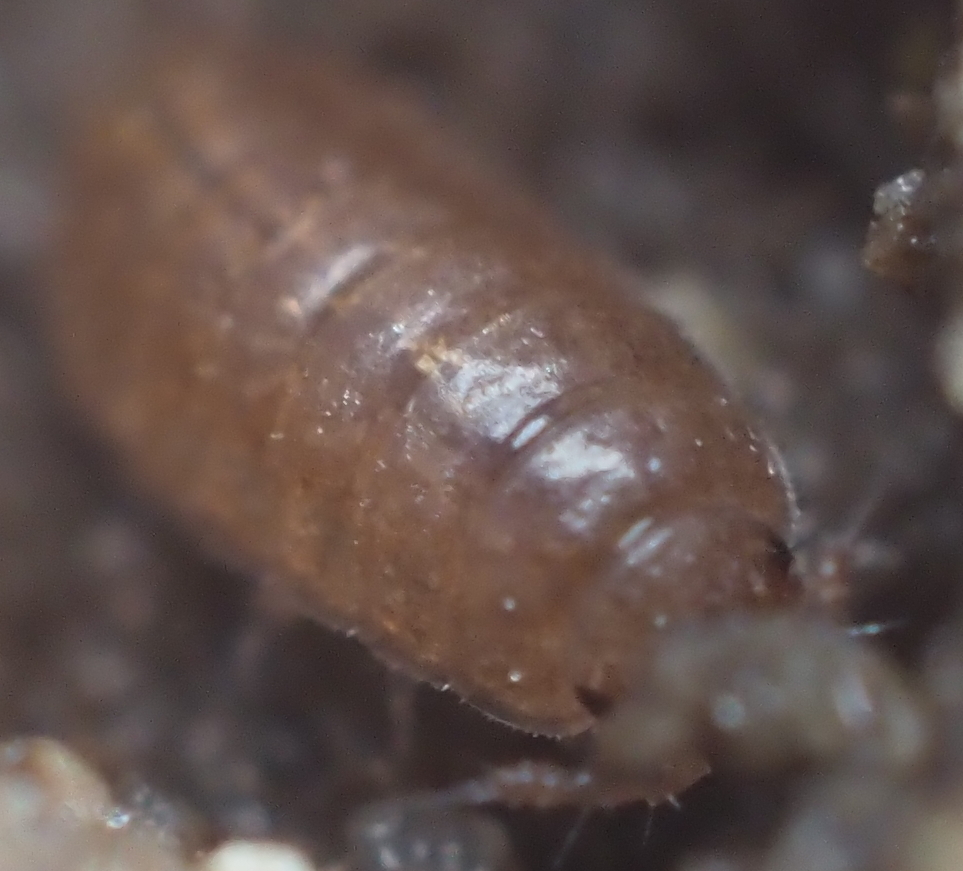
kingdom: Animalia
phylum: Arthropoda
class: Malacostraca
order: Isopoda
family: Trichoniscidae
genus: Hyloniscus
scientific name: Hyloniscus riparius
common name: Isopod
